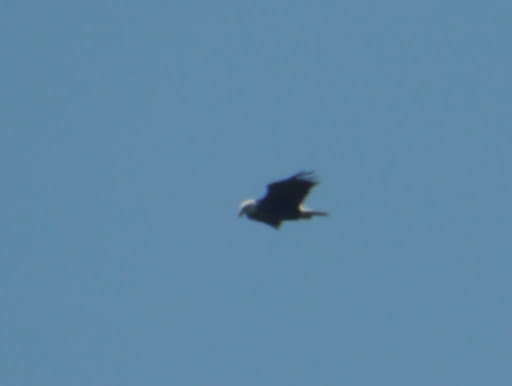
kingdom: Animalia
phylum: Chordata
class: Aves
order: Accipitriformes
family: Accipitridae
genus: Haliaeetus
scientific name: Haliaeetus leucocephalus
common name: Bald eagle
